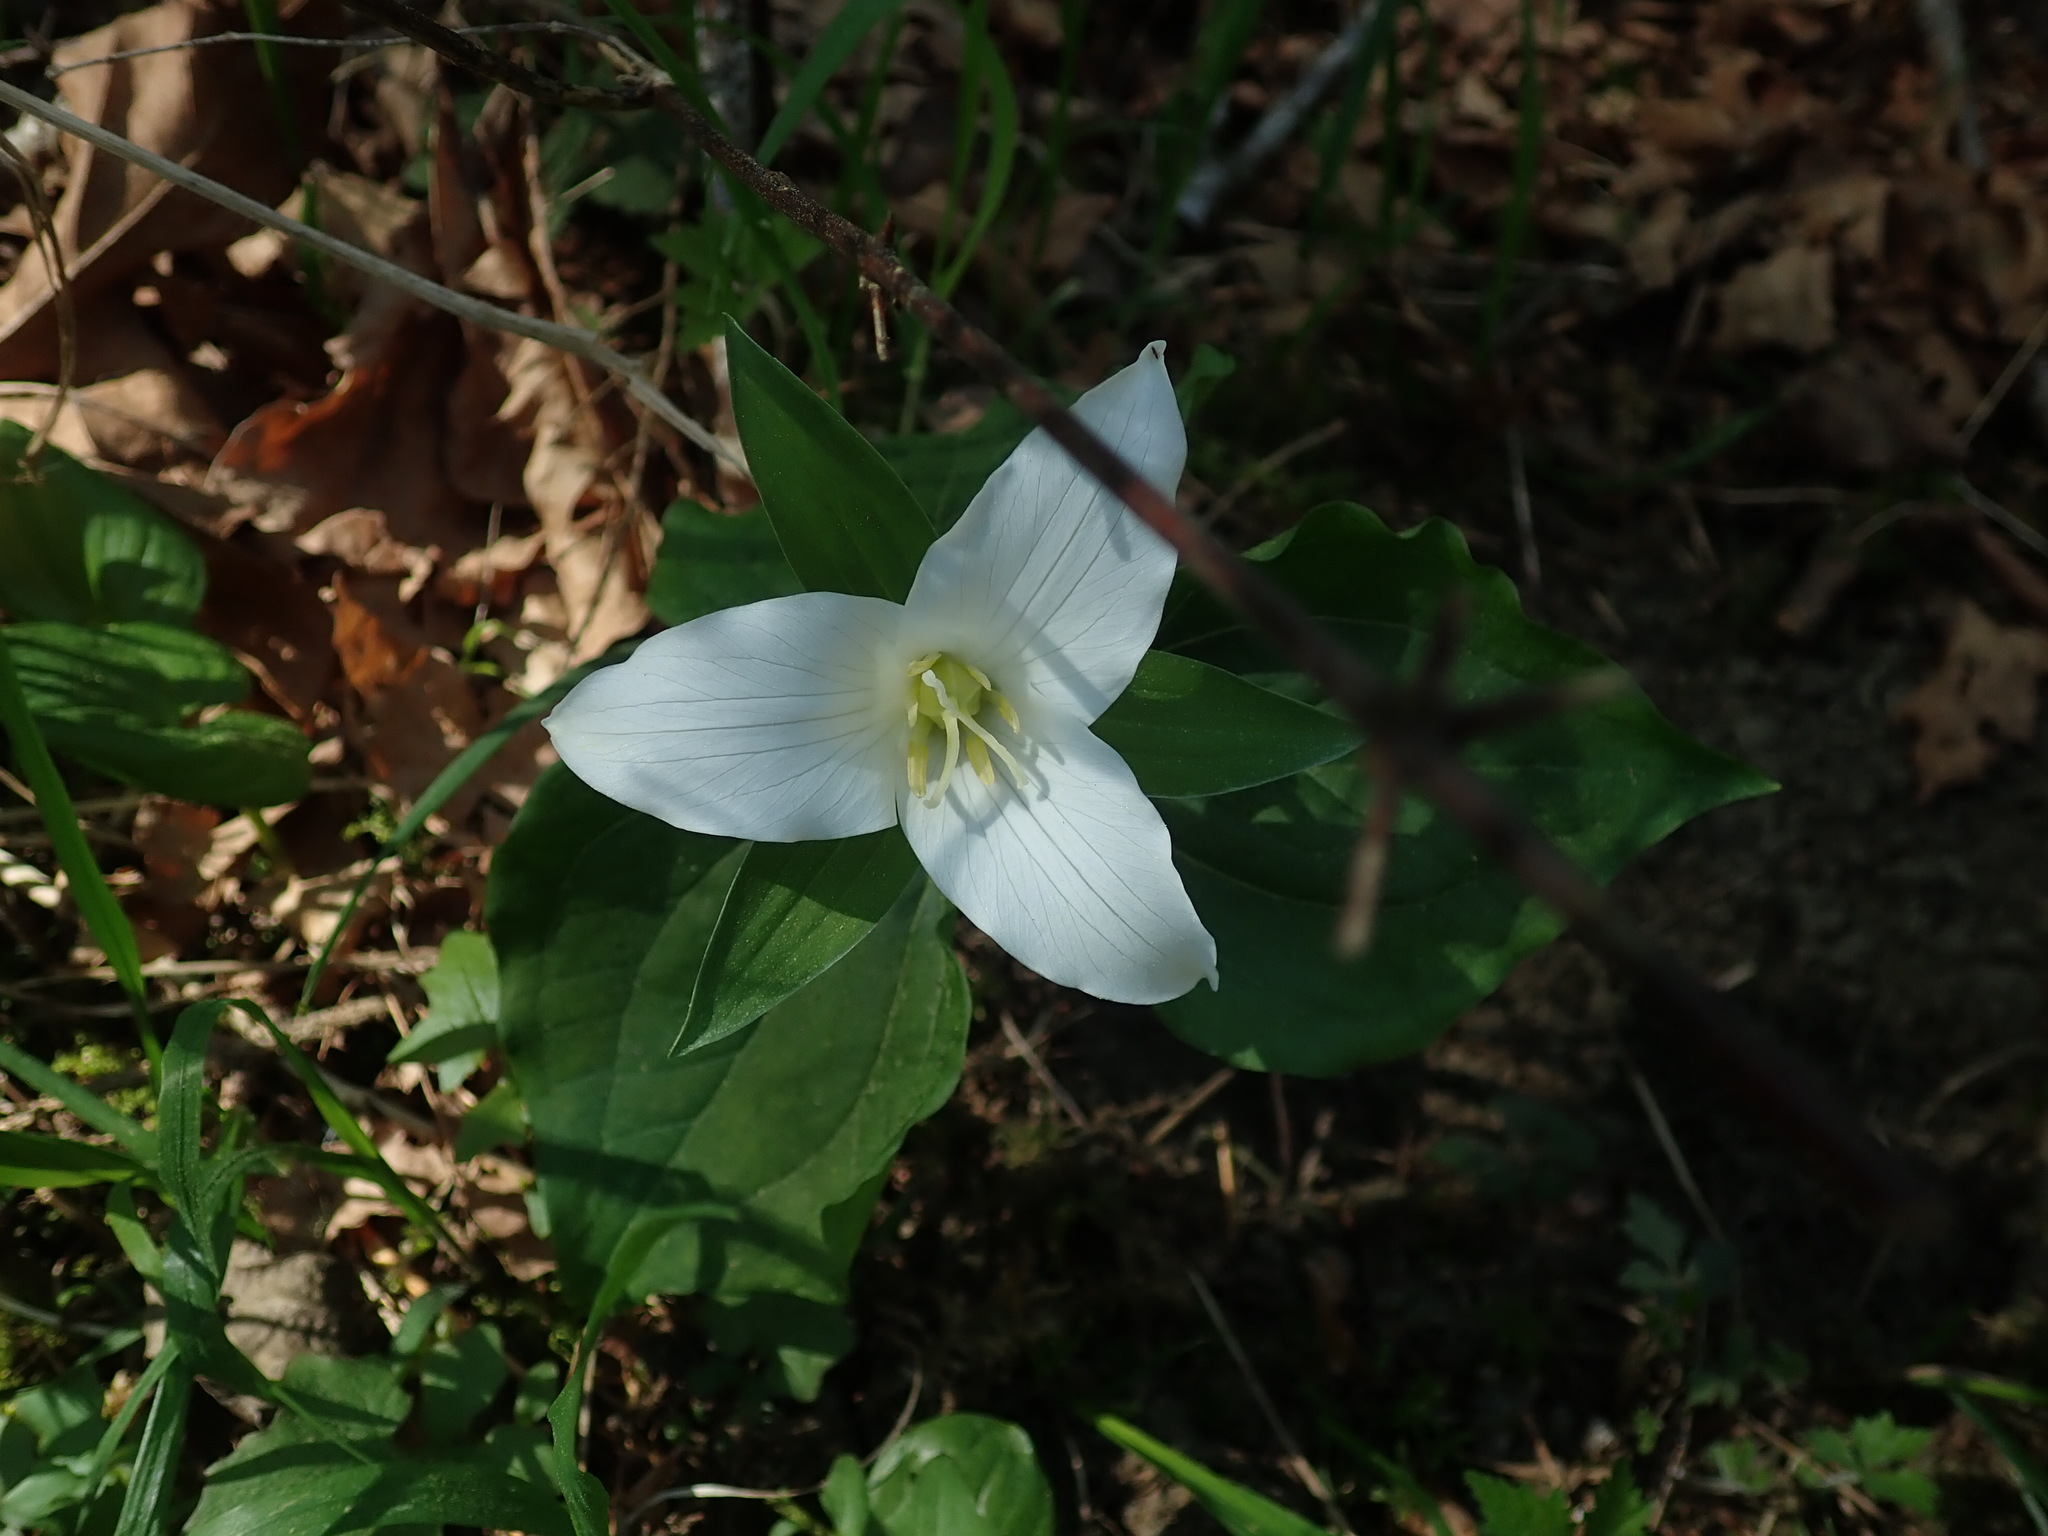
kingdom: Plantae
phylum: Tracheophyta
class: Liliopsida
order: Liliales
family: Melanthiaceae
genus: Trillium
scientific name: Trillium ovatum
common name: Pacific trillium
